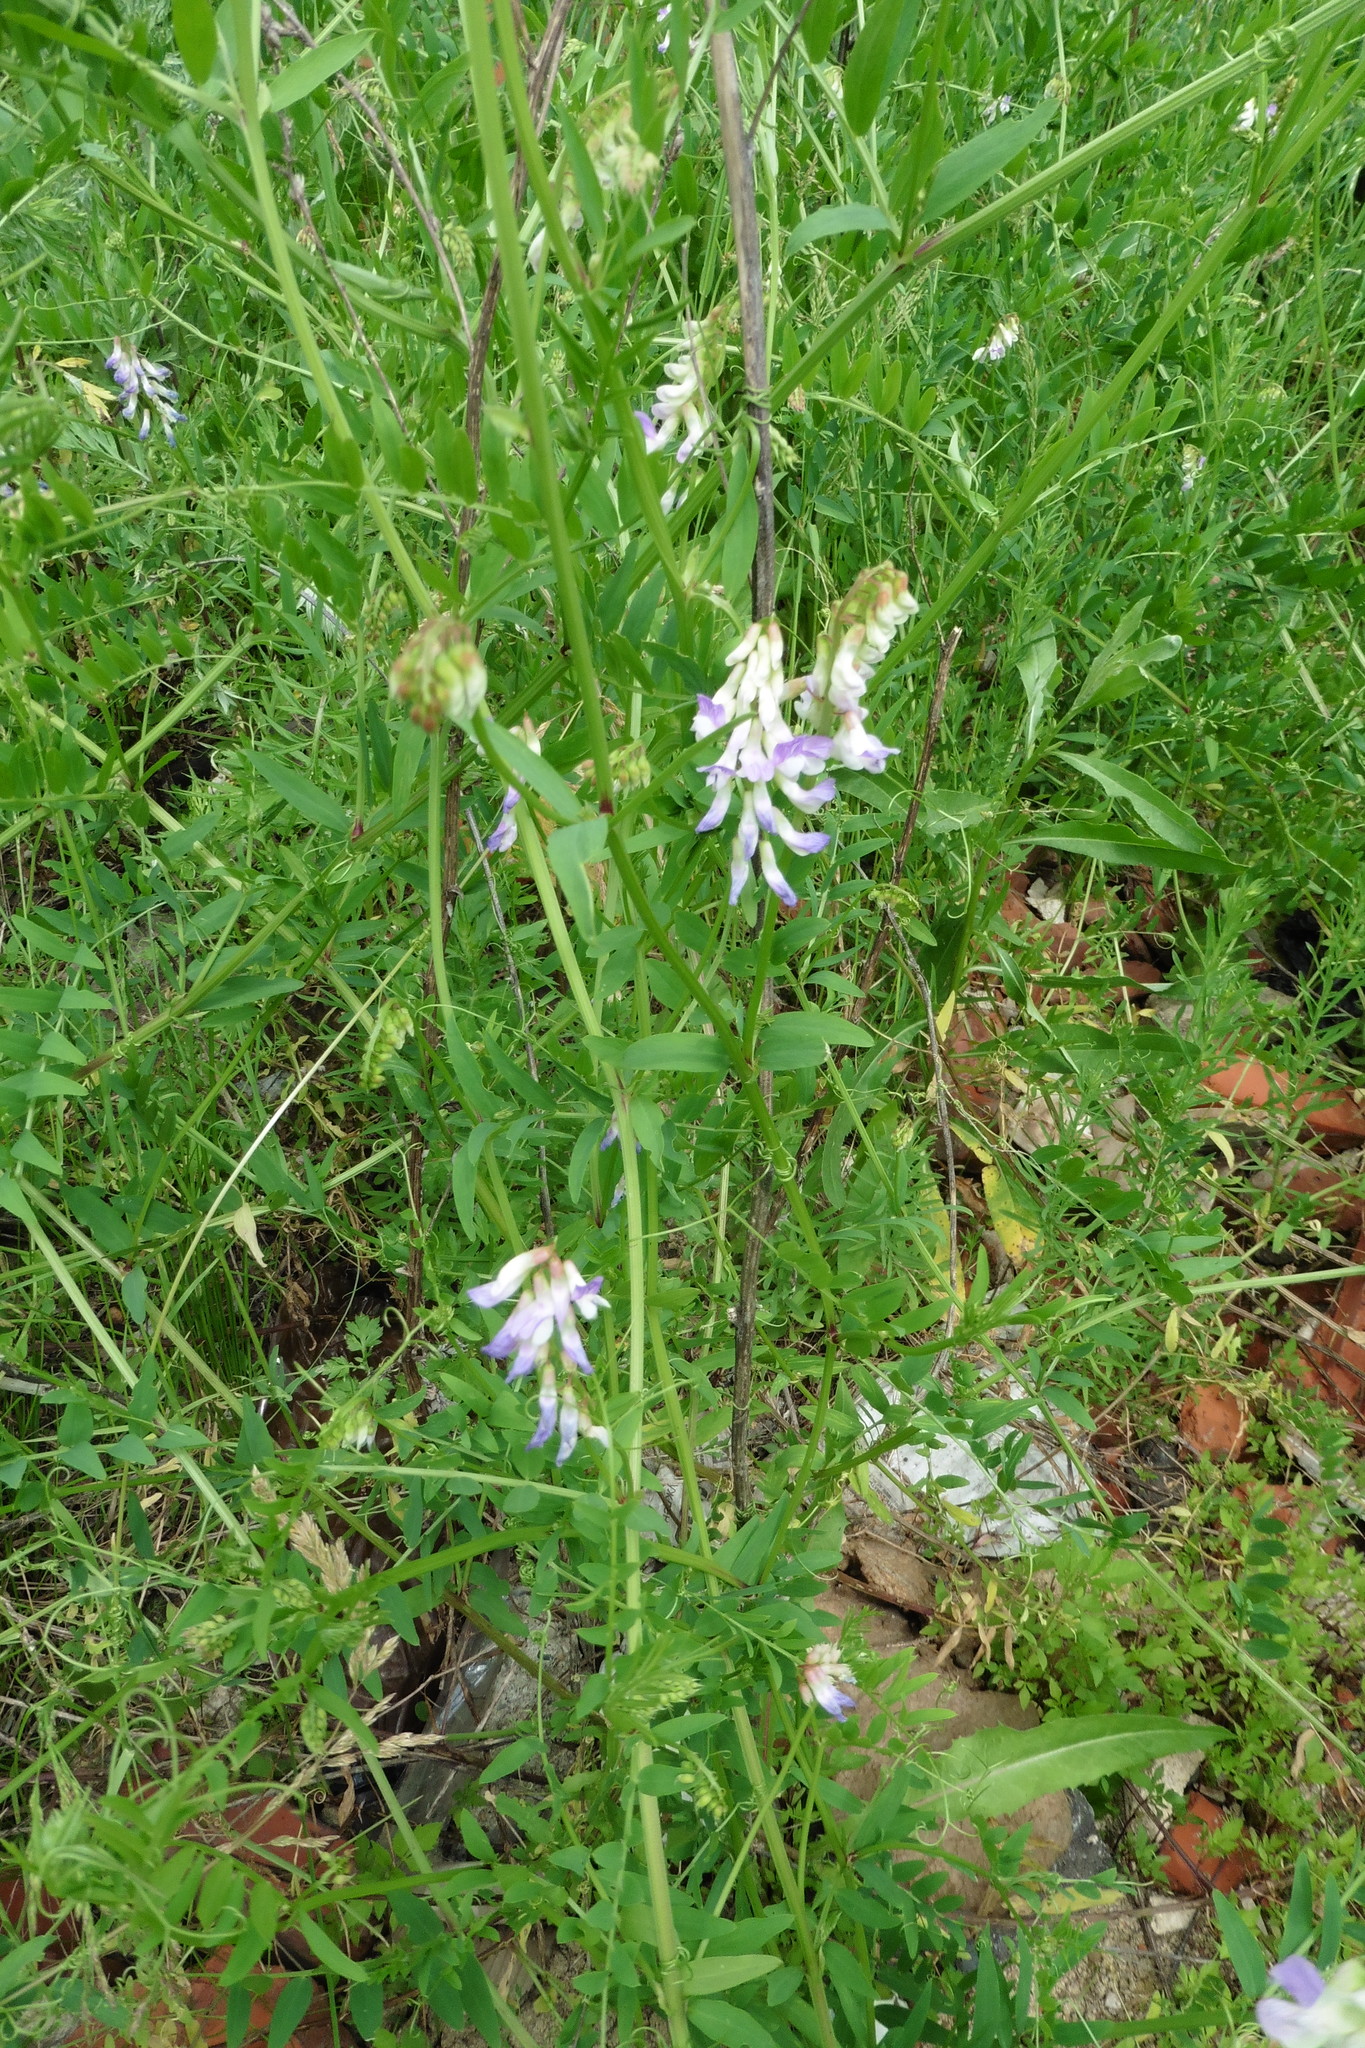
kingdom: Plantae
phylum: Tracheophyta
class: Magnoliopsida
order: Fabales
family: Fabaceae
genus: Vicia
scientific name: Vicia biennis
